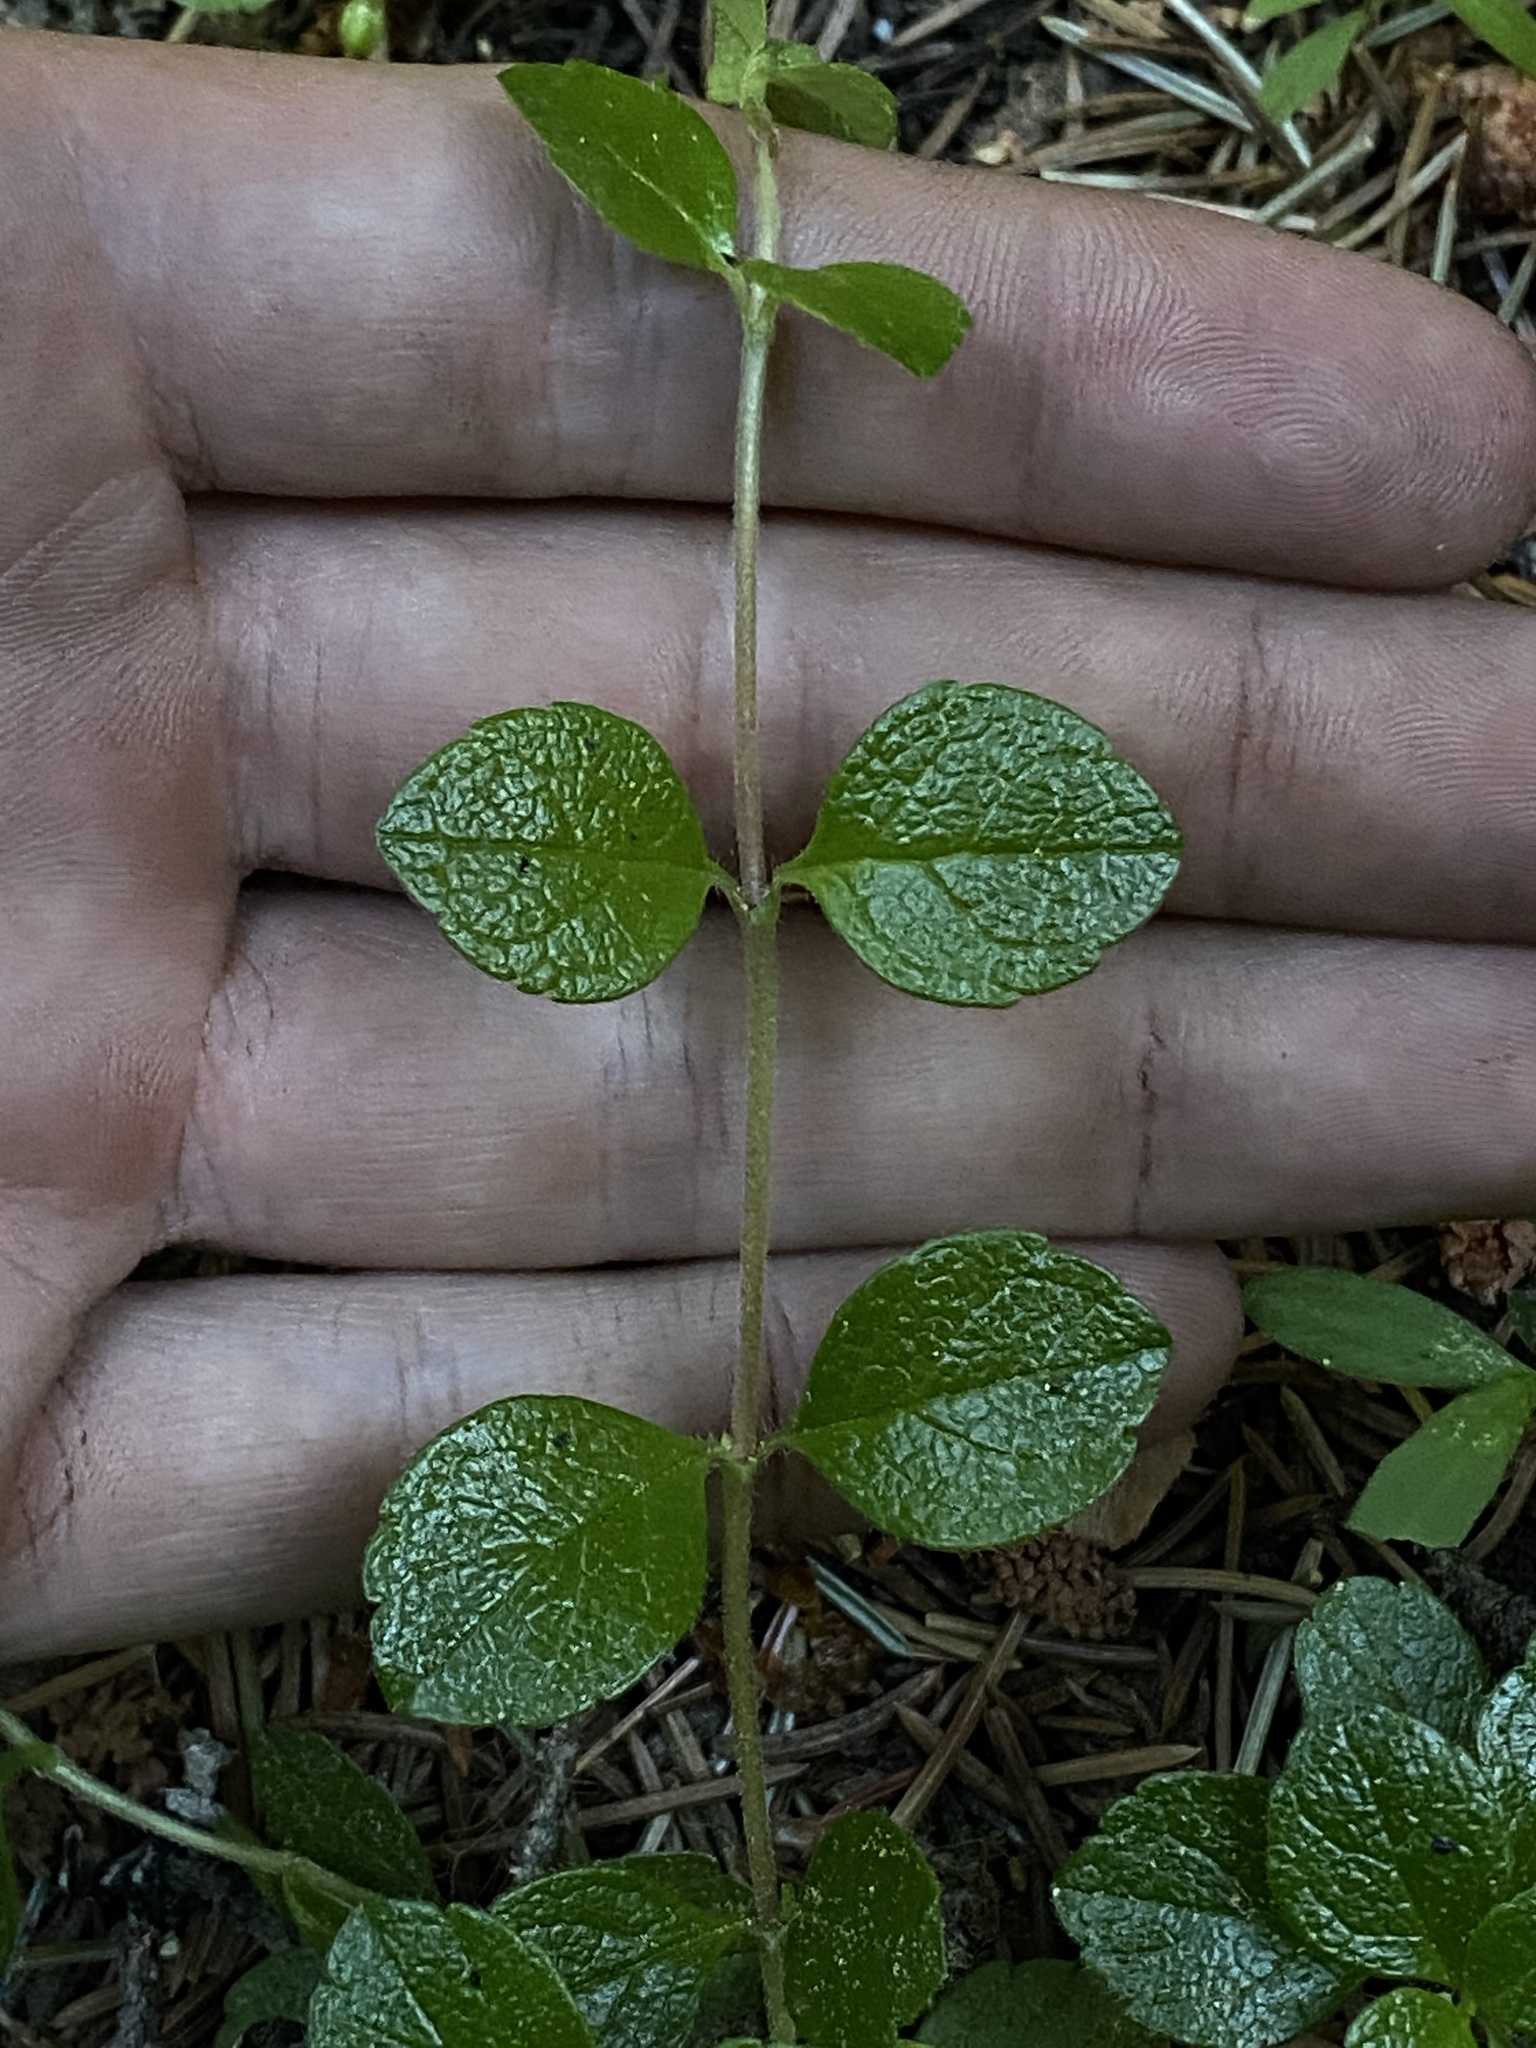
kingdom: Plantae
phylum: Tracheophyta
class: Magnoliopsida
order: Dipsacales
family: Caprifoliaceae
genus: Linnaea
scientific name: Linnaea borealis
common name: Twinflower
